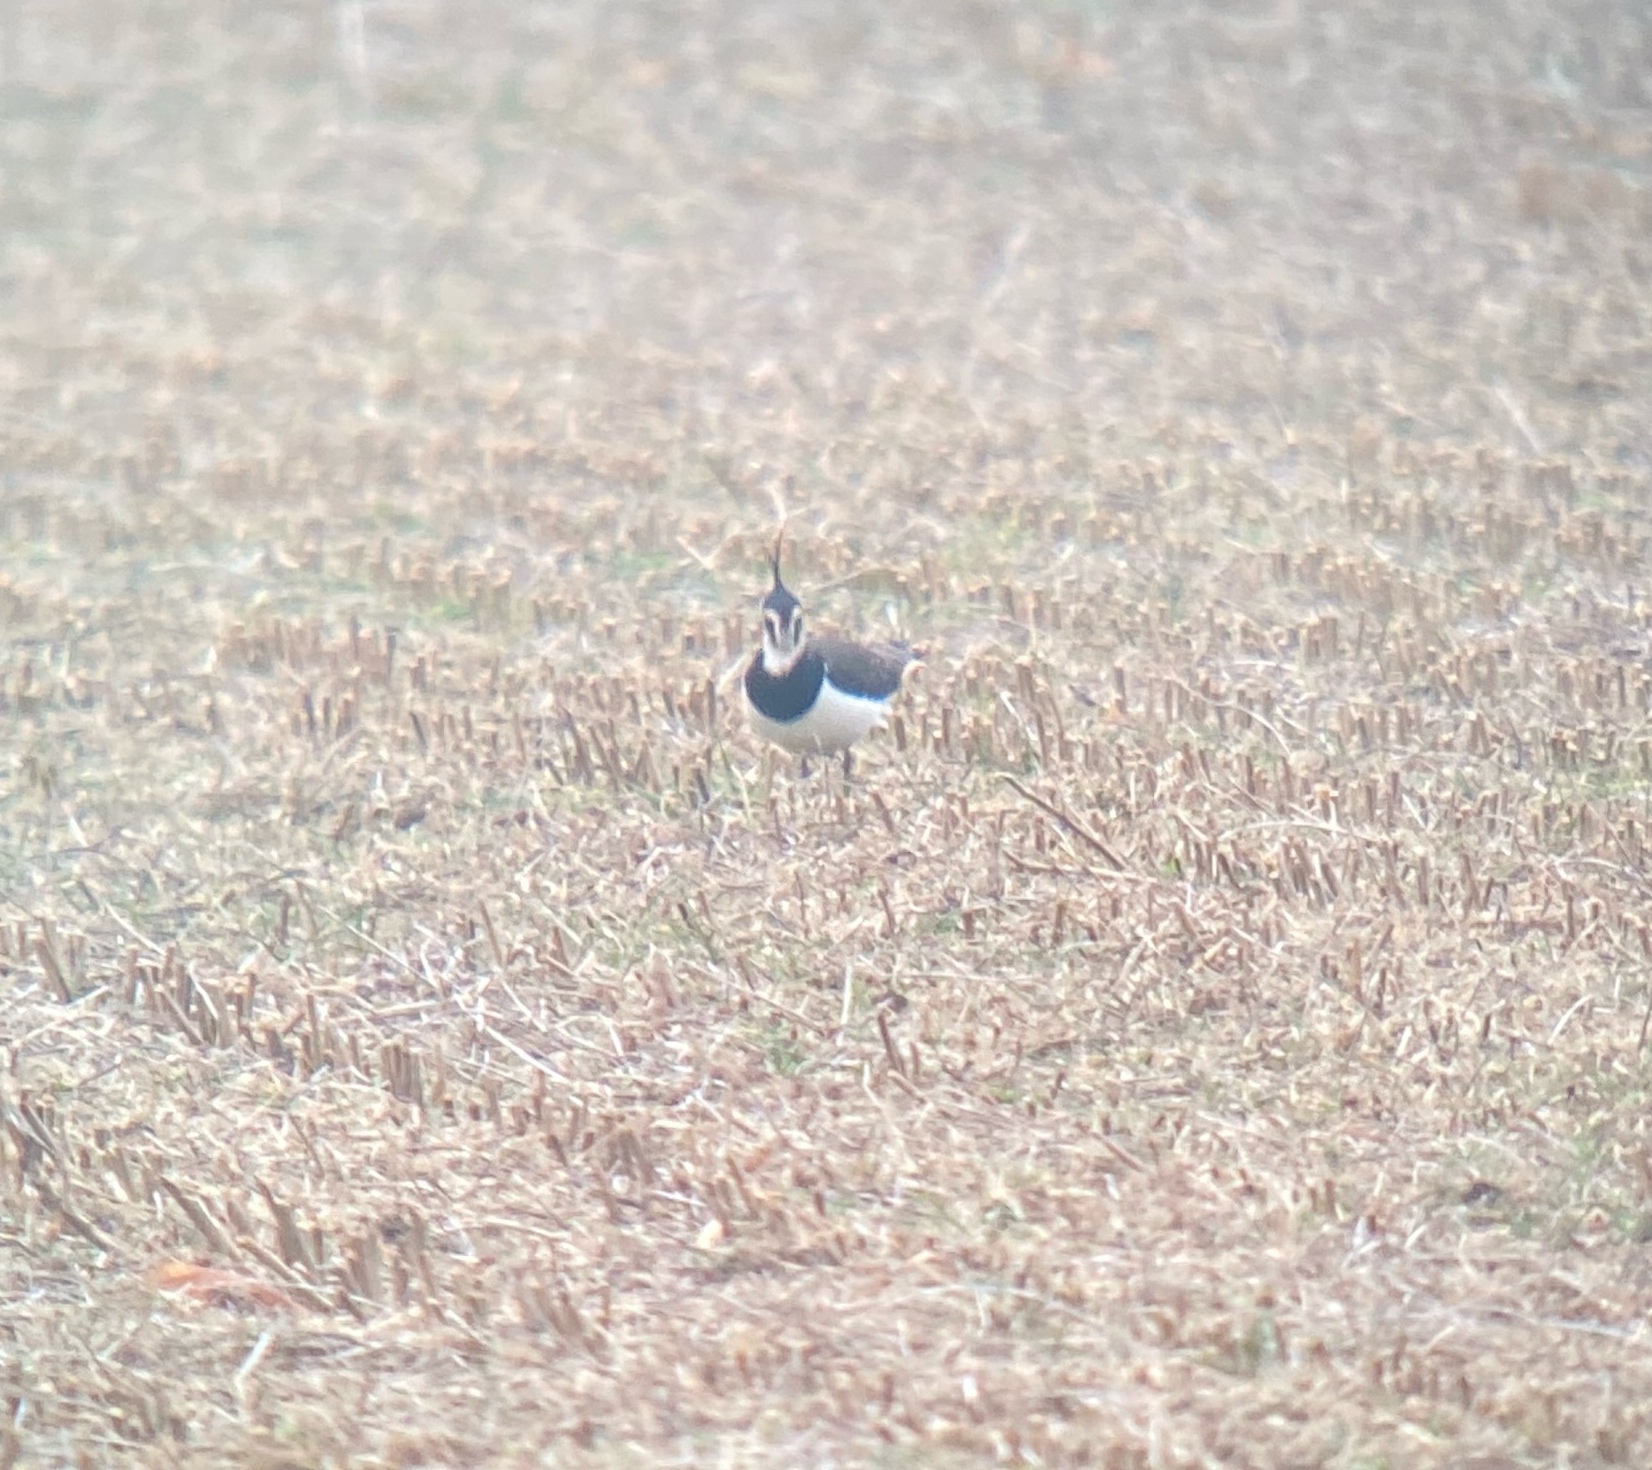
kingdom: Animalia
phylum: Chordata
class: Aves
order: Charadriiformes
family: Charadriidae
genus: Vanellus
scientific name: Vanellus vanellus
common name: Northern lapwing
